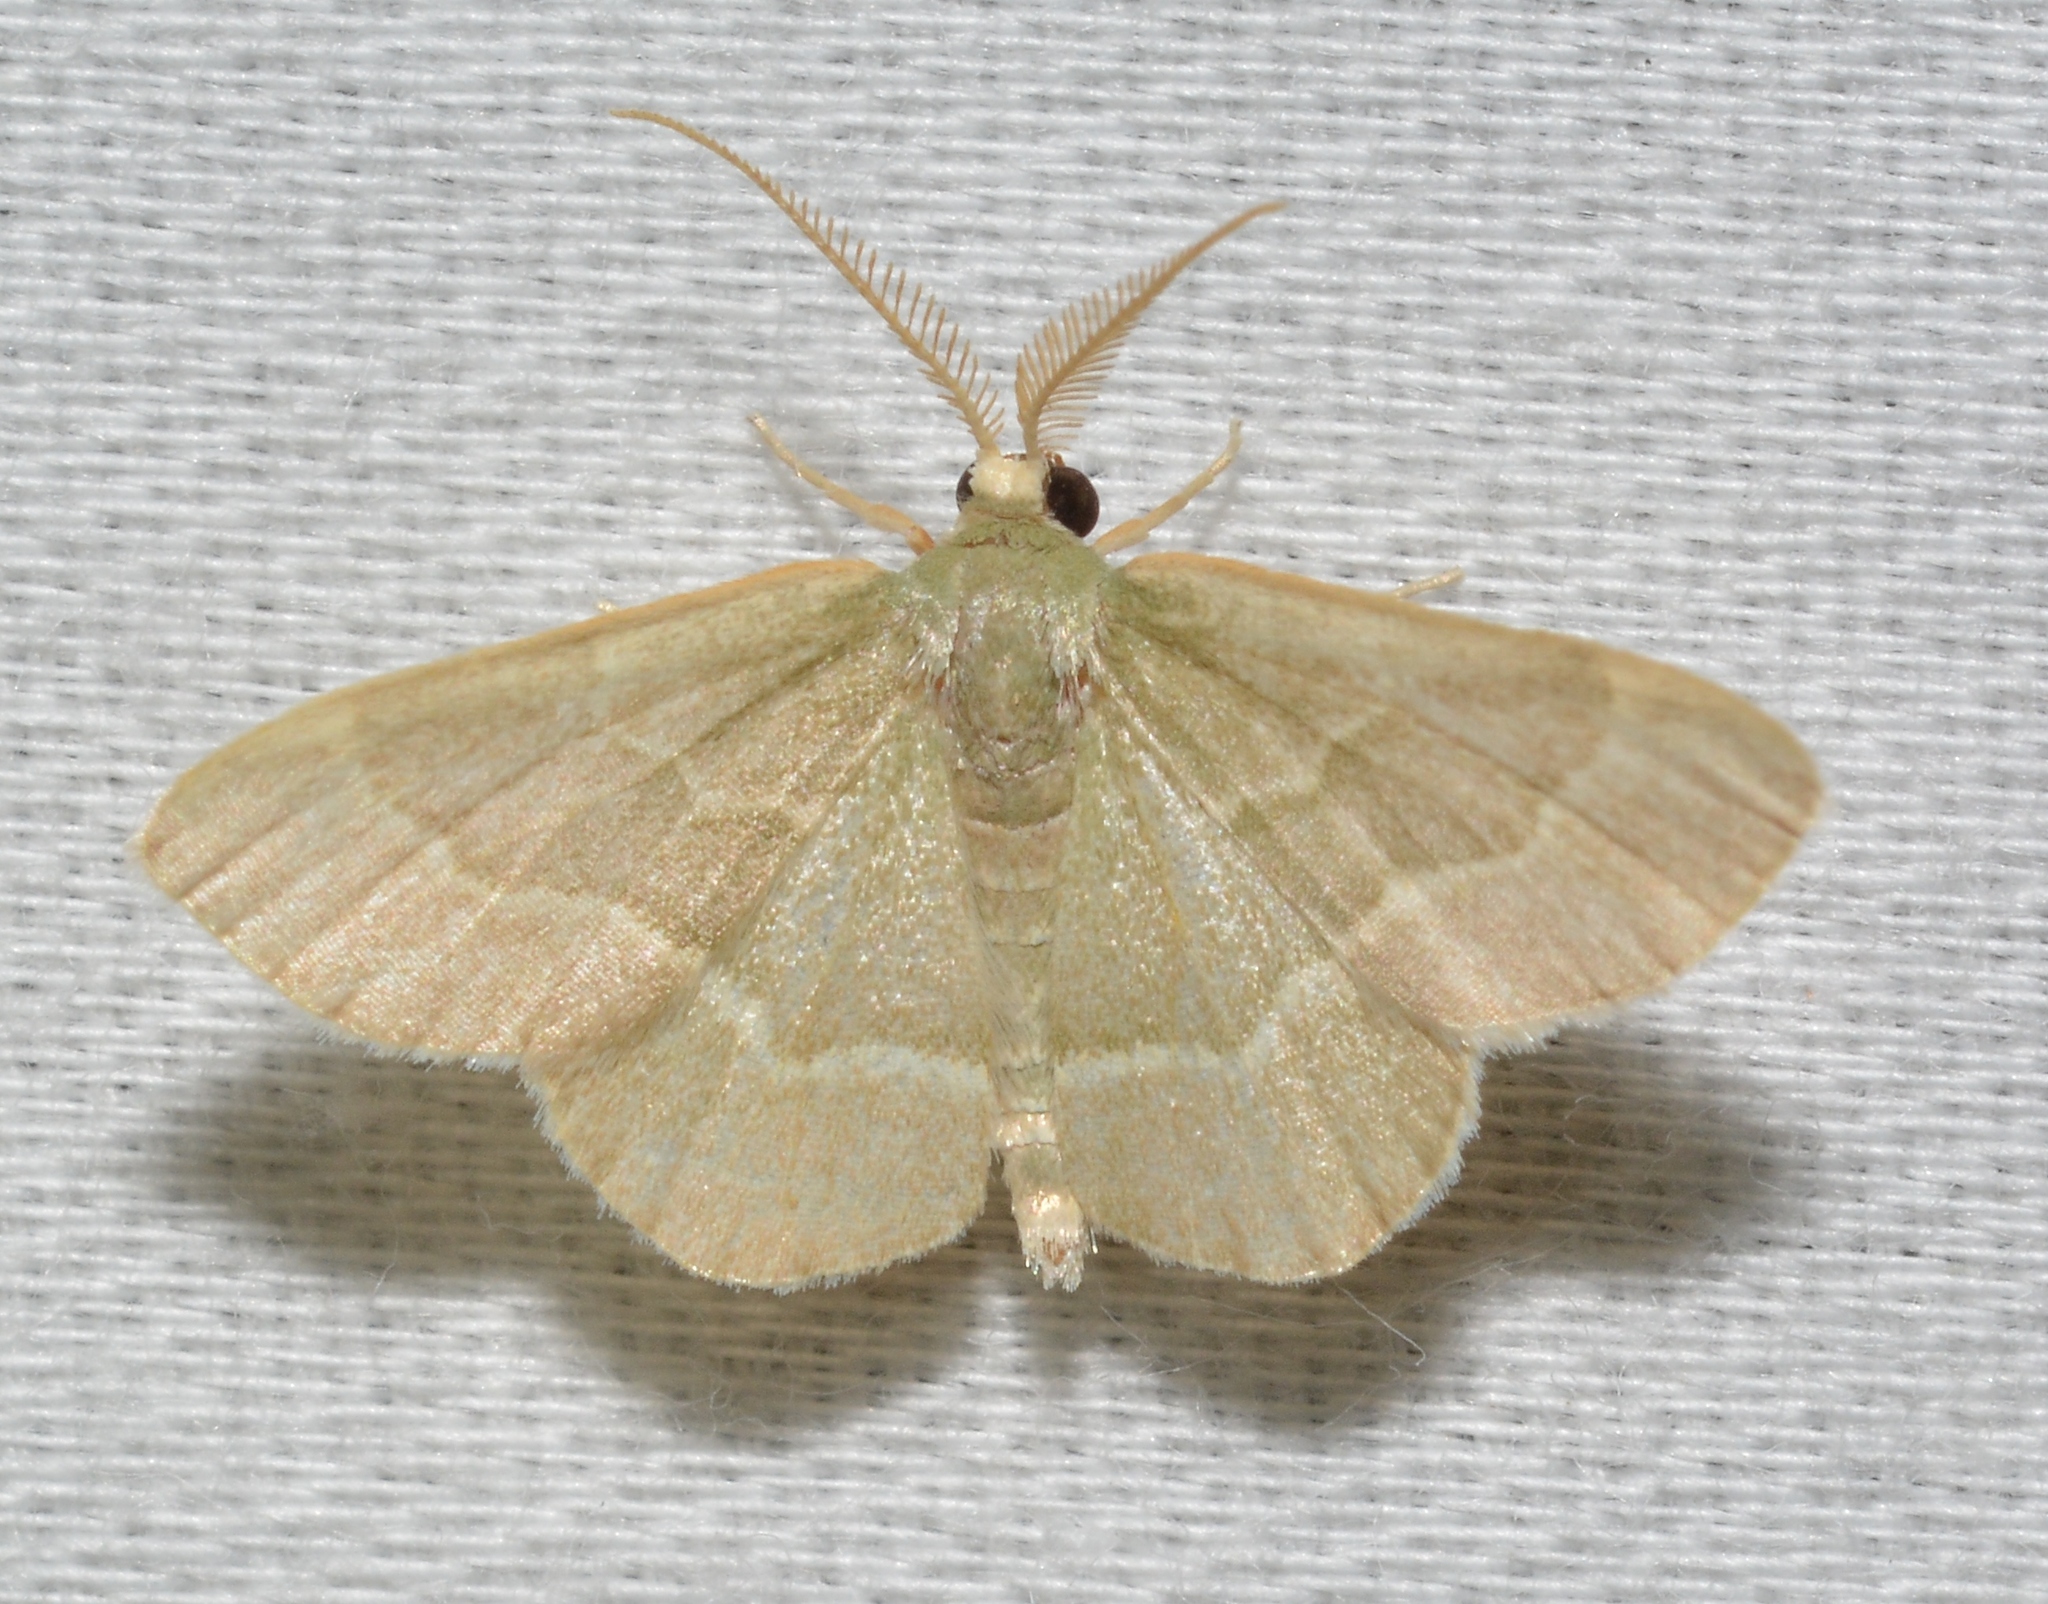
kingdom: Animalia
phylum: Arthropoda
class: Insecta
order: Lepidoptera
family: Geometridae
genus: Chlorochlamys
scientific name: Chlorochlamys phyllinaria
